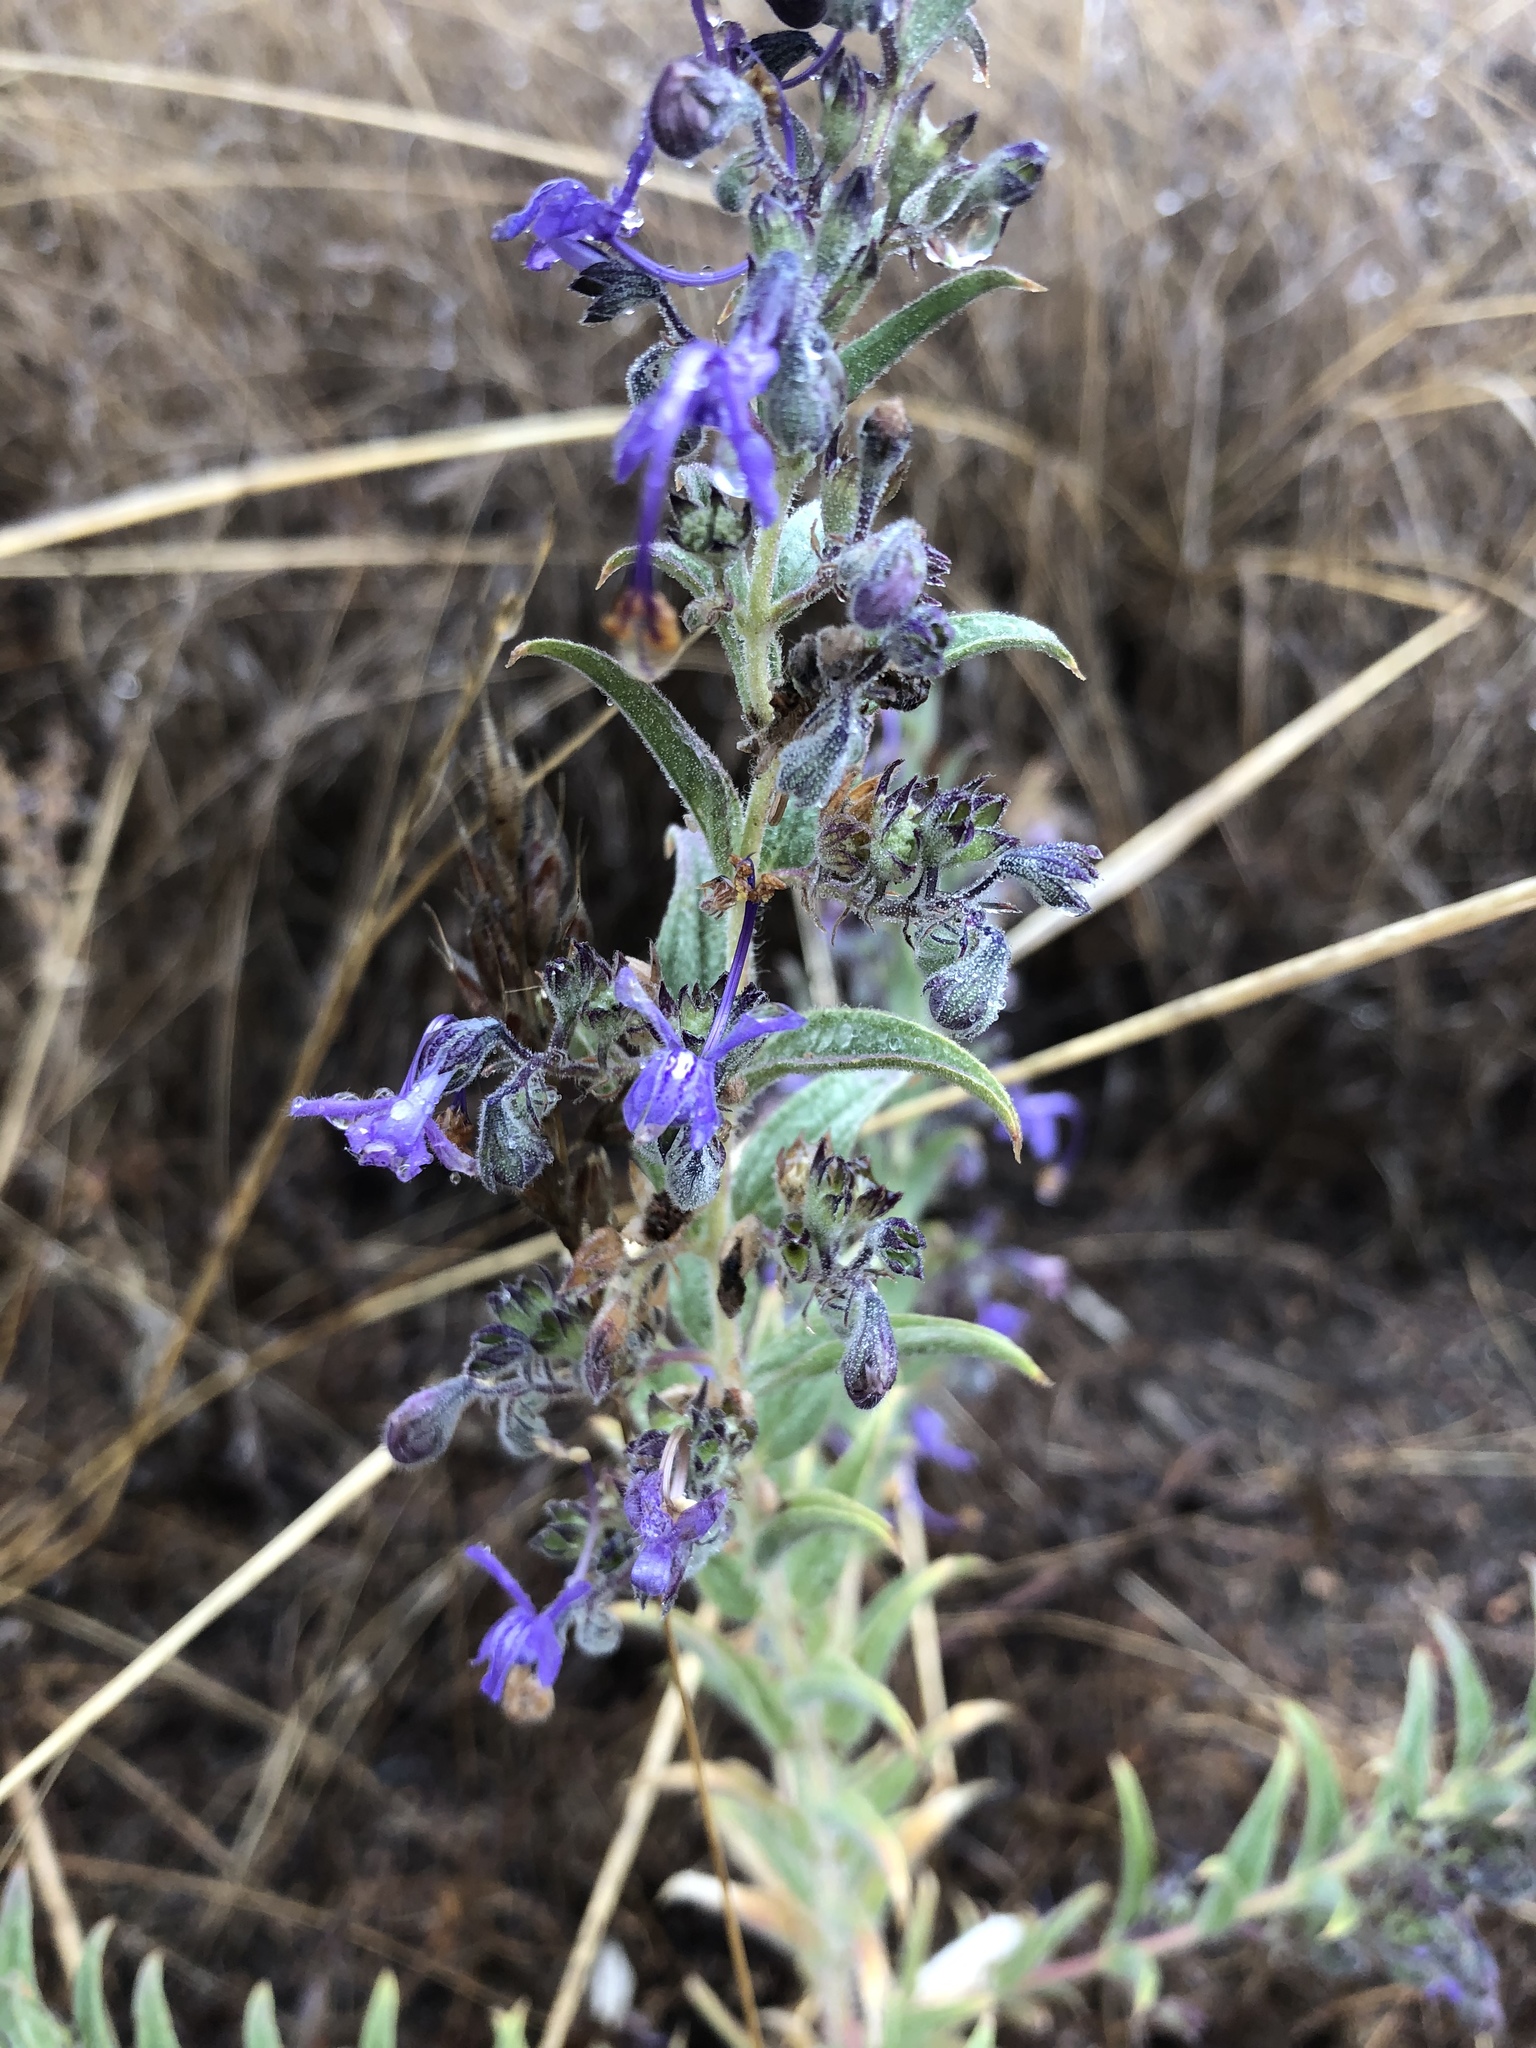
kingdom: Plantae
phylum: Tracheophyta
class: Magnoliopsida
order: Lamiales
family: Lamiaceae
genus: Trichostema
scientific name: Trichostema lanceolatum
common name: Vinegar-weed
